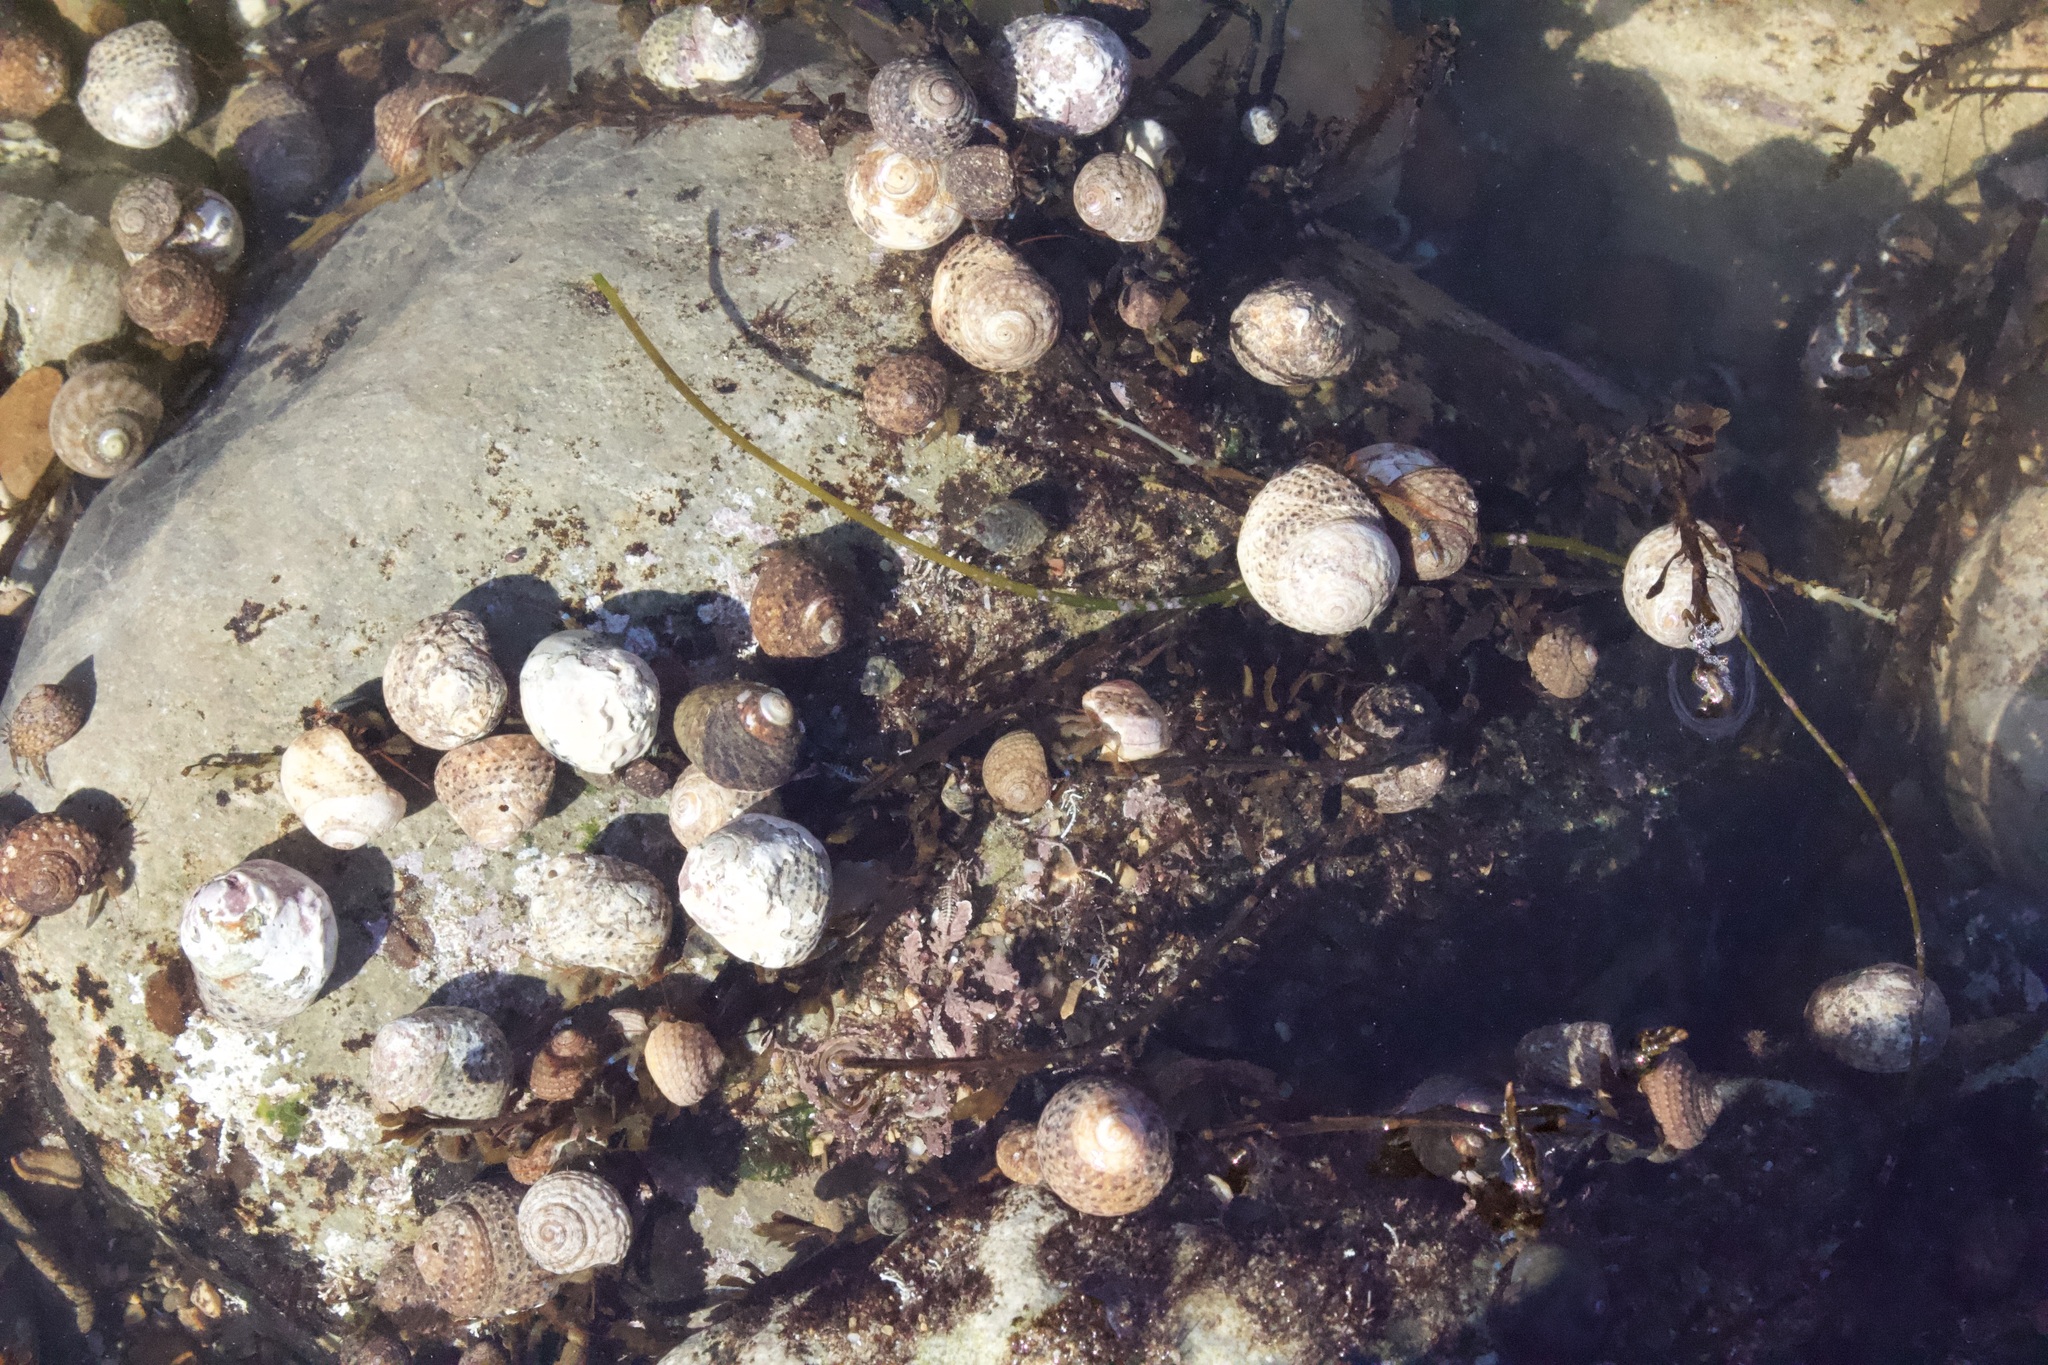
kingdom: Animalia
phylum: Arthropoda
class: Malacostraca
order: Decapoda
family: Paguridae
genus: Pagurus
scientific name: Pagurus samuelis
